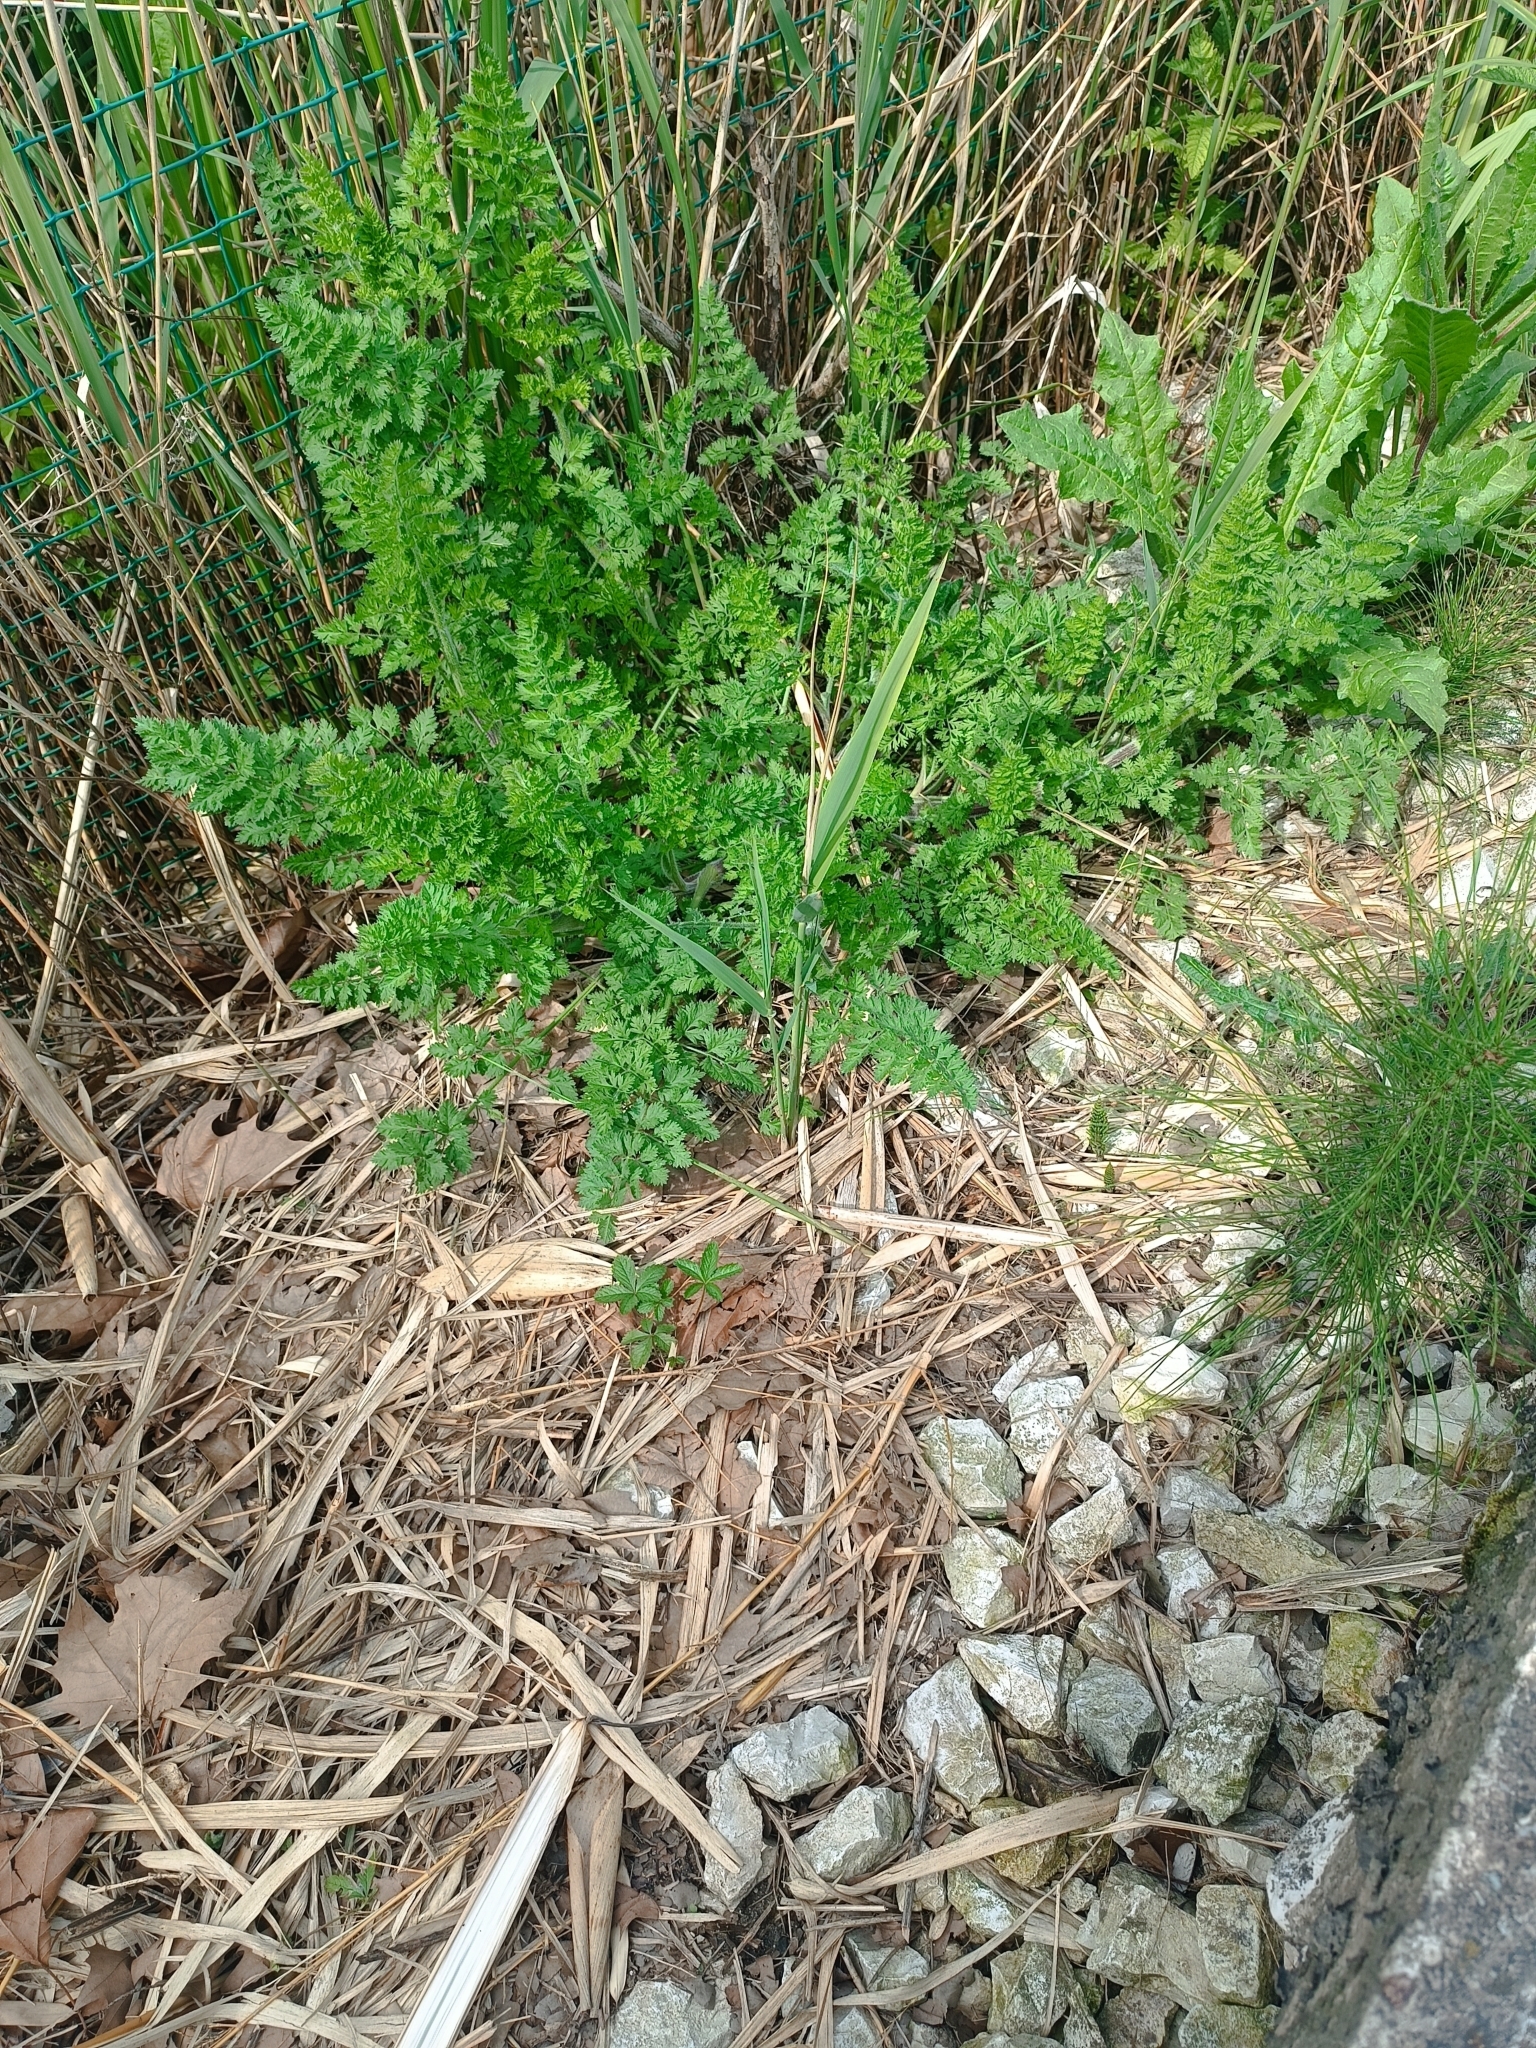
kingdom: Plantae
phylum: Tracheophyta
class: Magnoliopsida
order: Apiales
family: Apiaceae
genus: Daucus
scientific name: Daucus carota
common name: Wild carrot
